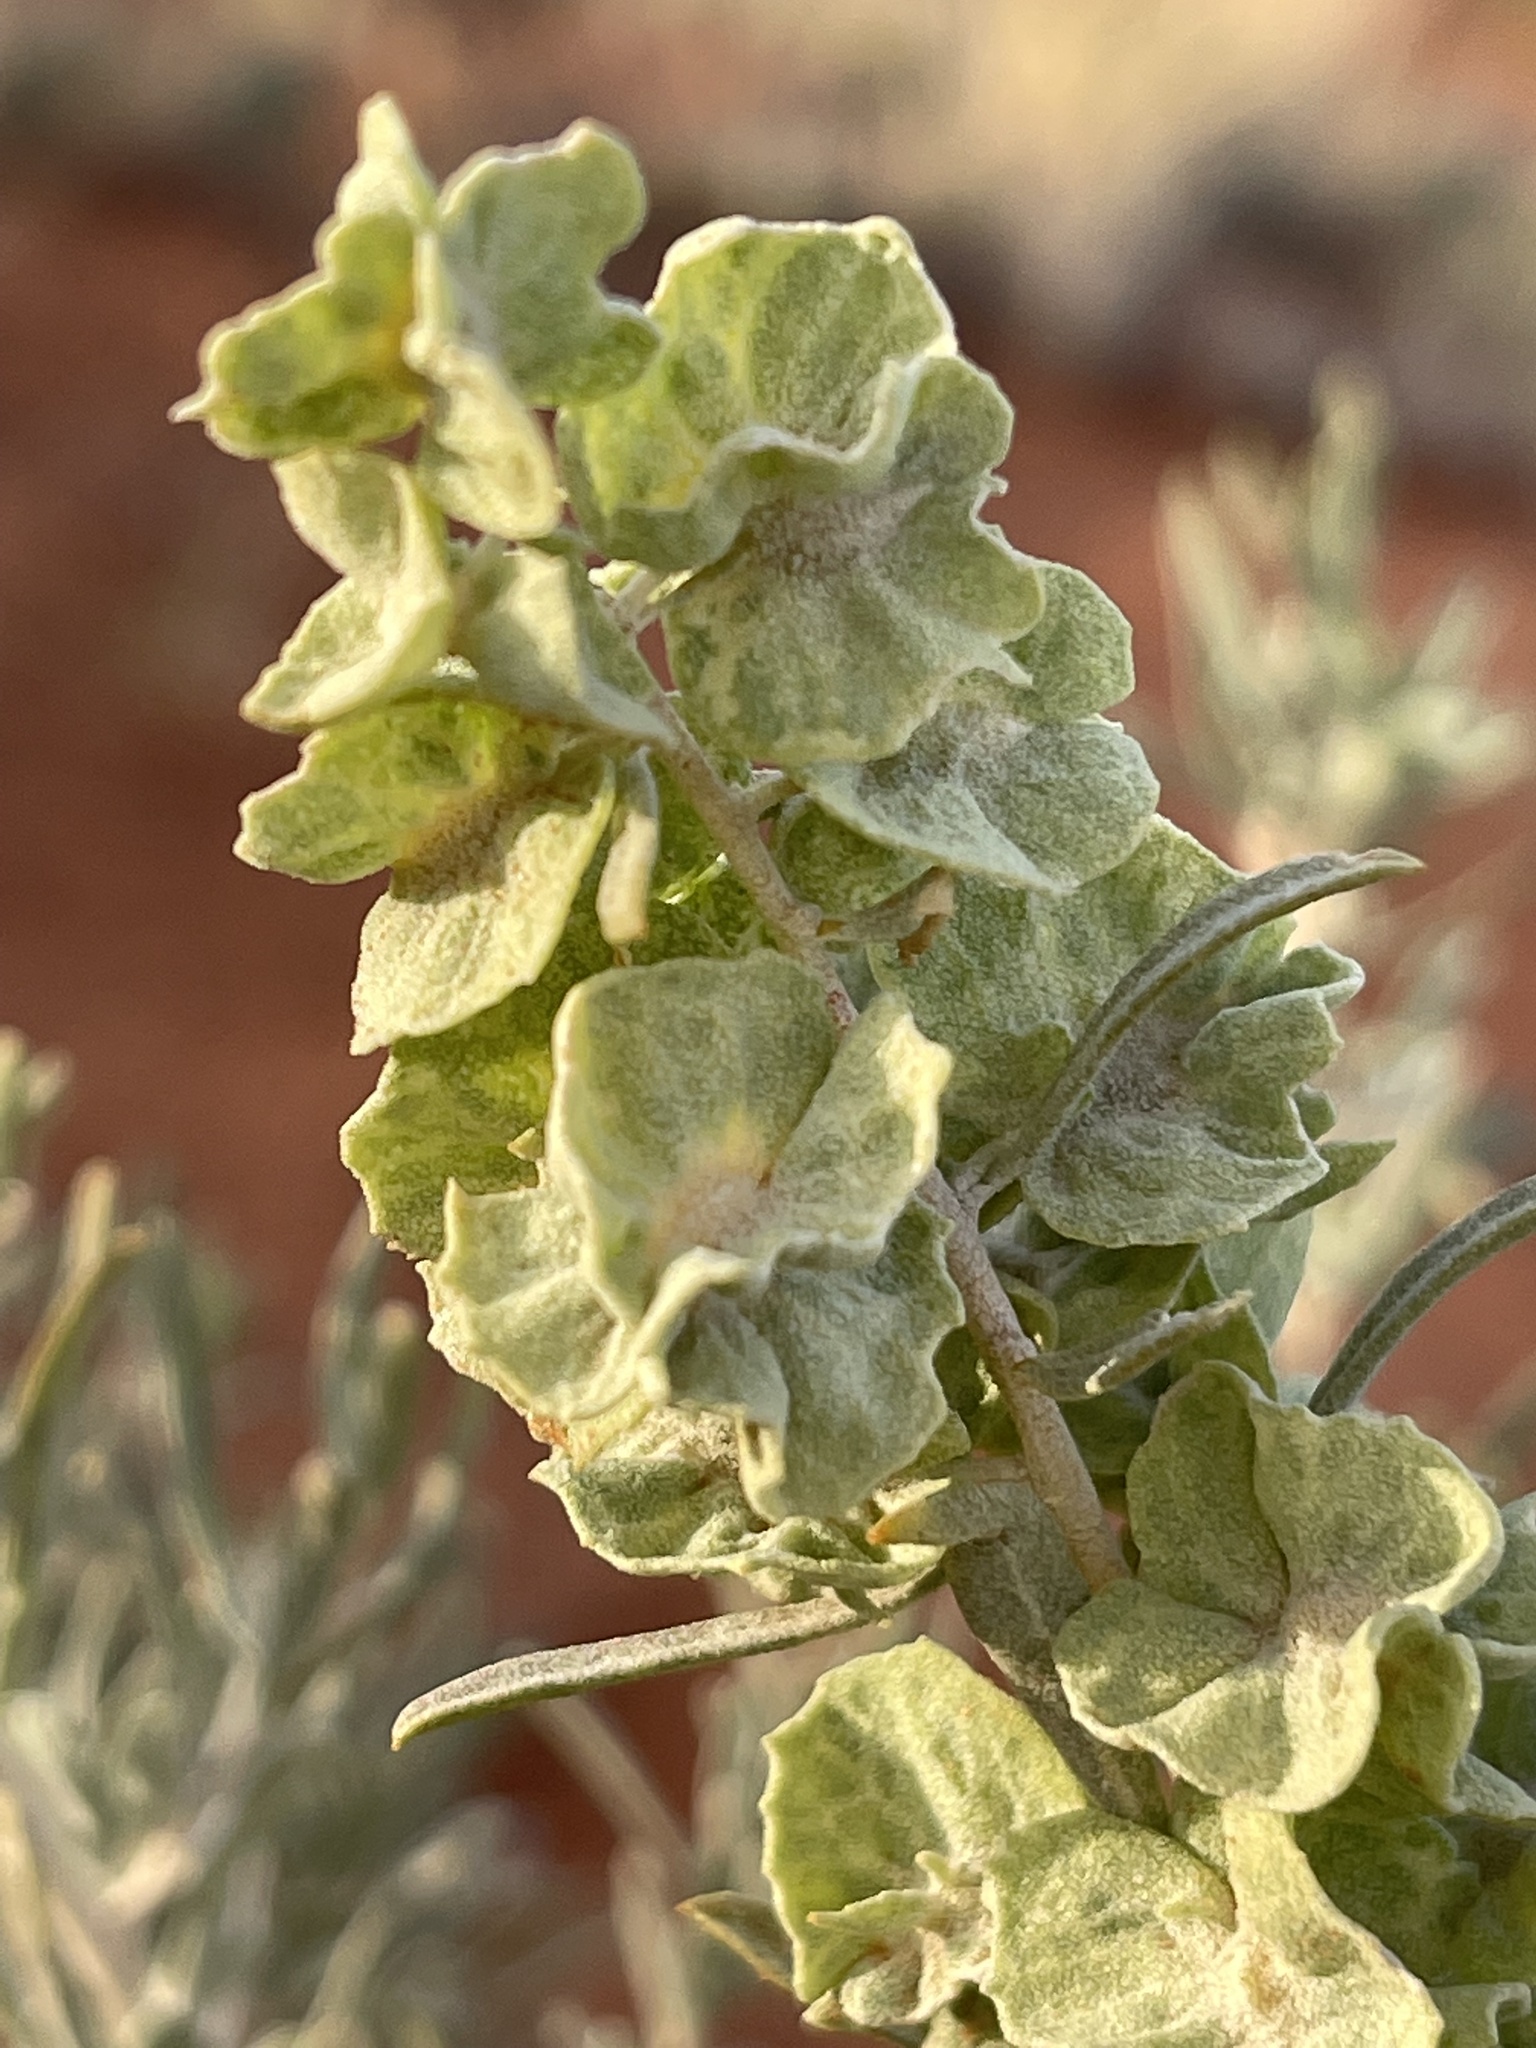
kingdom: Plantae
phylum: Tracheophyta
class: Magnoliopsida
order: Caryophyllales
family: Amaranthaceae
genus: Atriplex
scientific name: Atriplex canescens
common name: Four-wing saltbush
